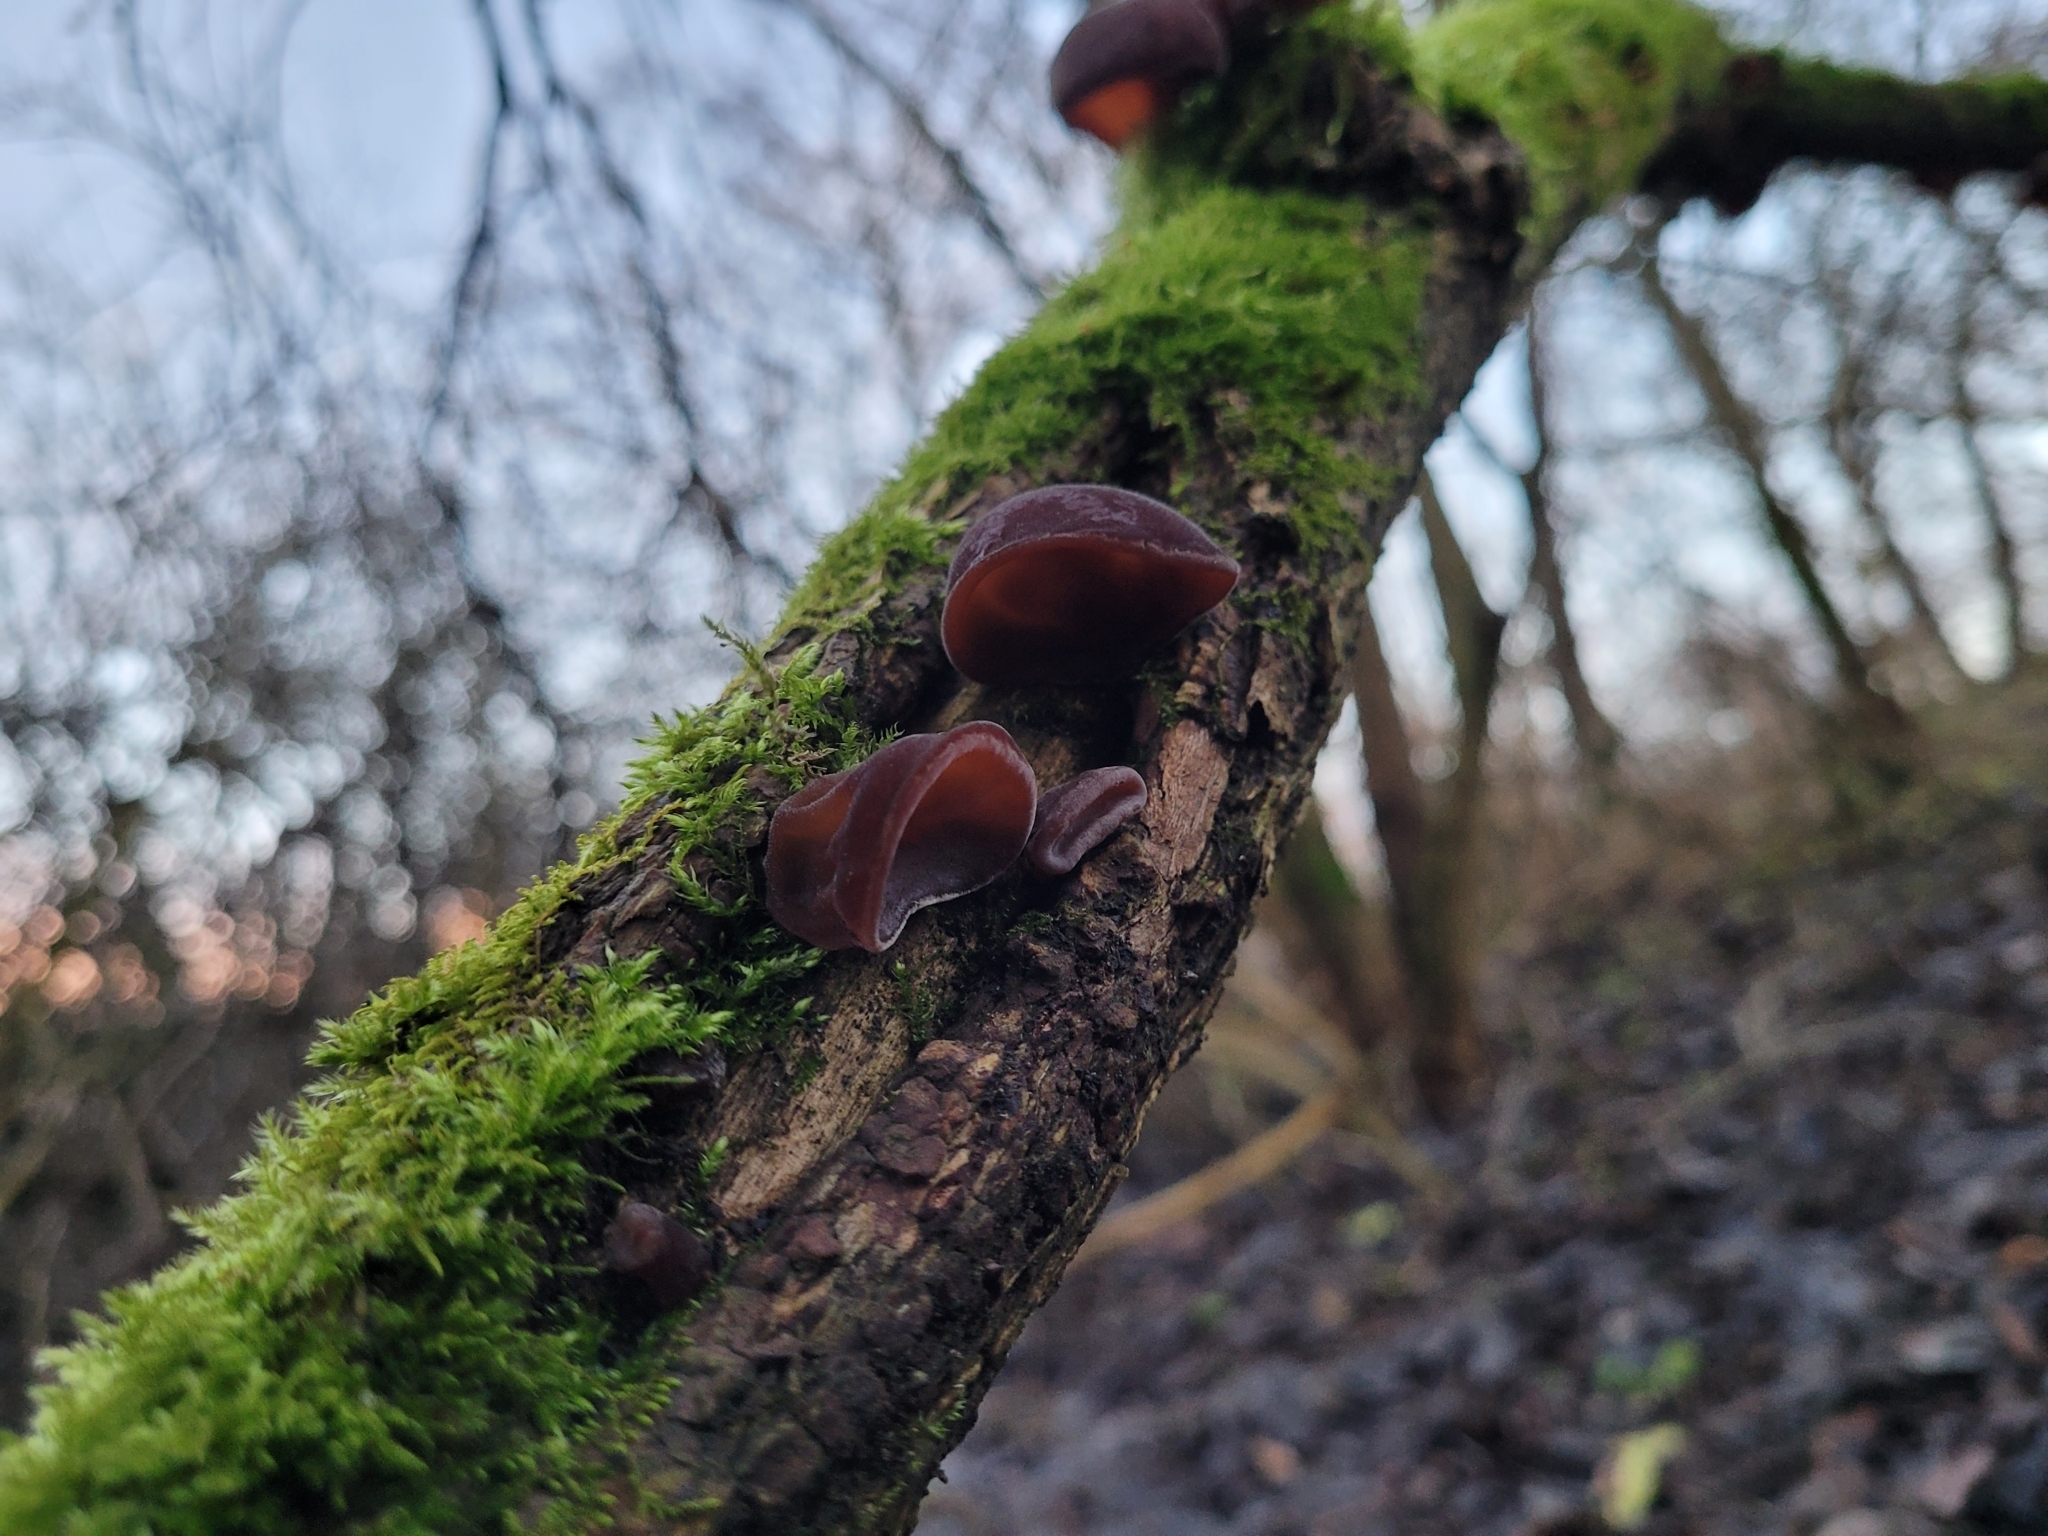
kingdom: Fungi
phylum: Basidiomycota
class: Agaricomycetes
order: Auriculariales
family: Auriculariaceae
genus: Auricularia
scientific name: Auricularia auricula-judae
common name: Jelly ear
